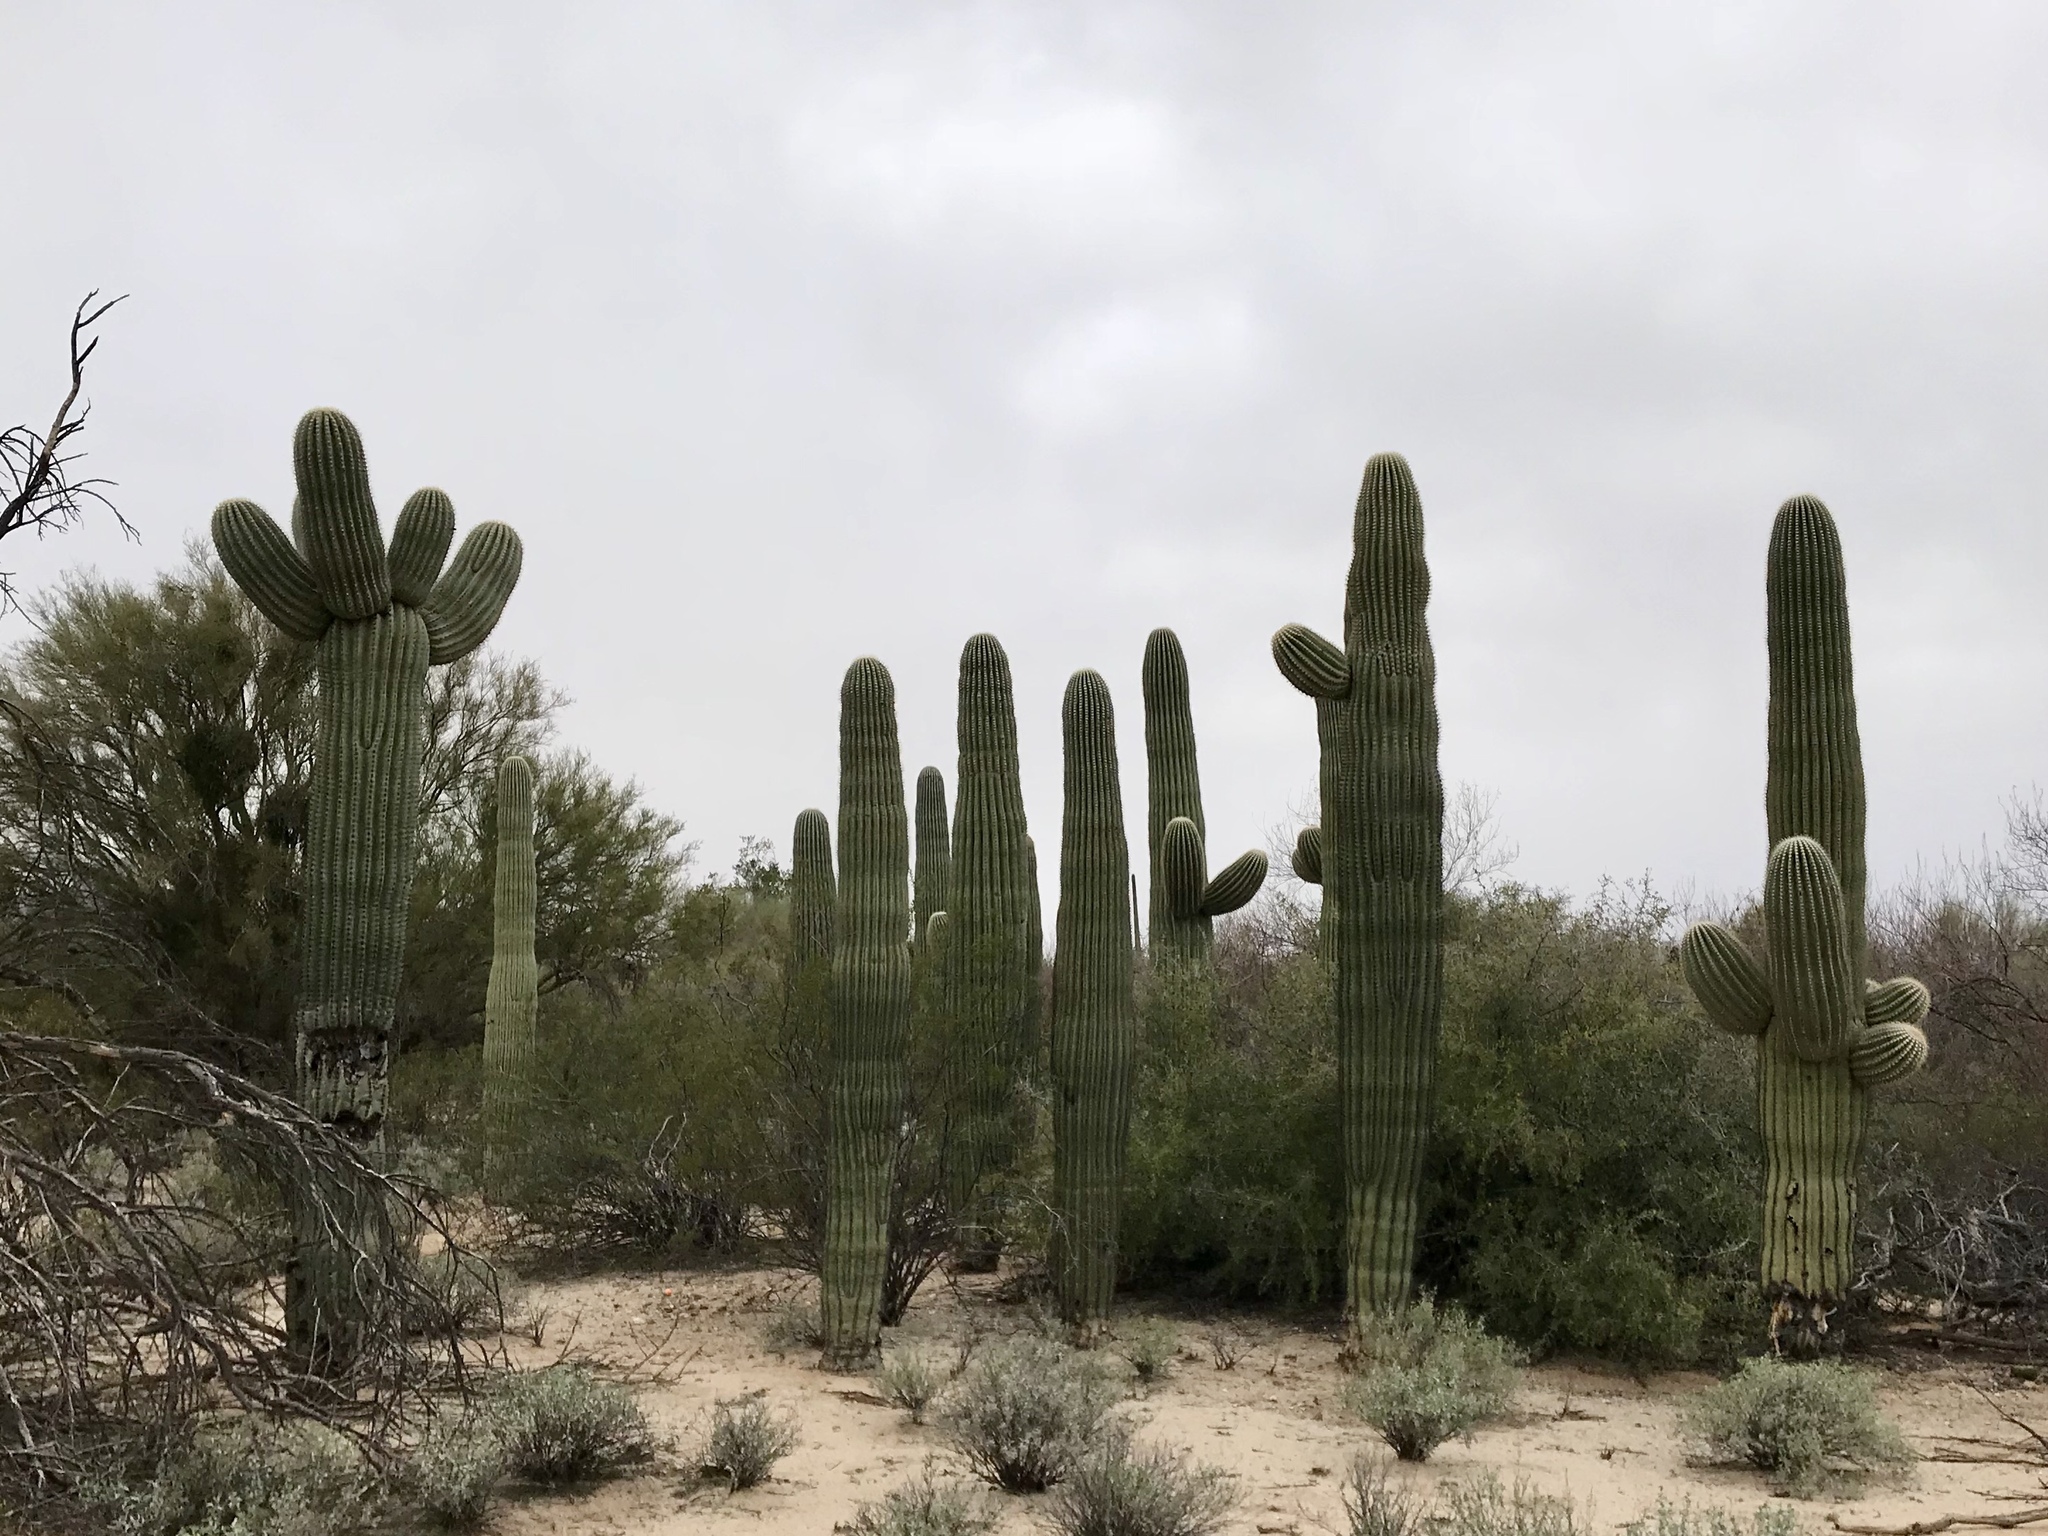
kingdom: Plantae
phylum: Tracheophyta
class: Magnoliopsida
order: Caryophyllales
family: Cactaceae
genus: Carnegiea
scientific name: Carnegiea gigantea
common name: Saguaro
